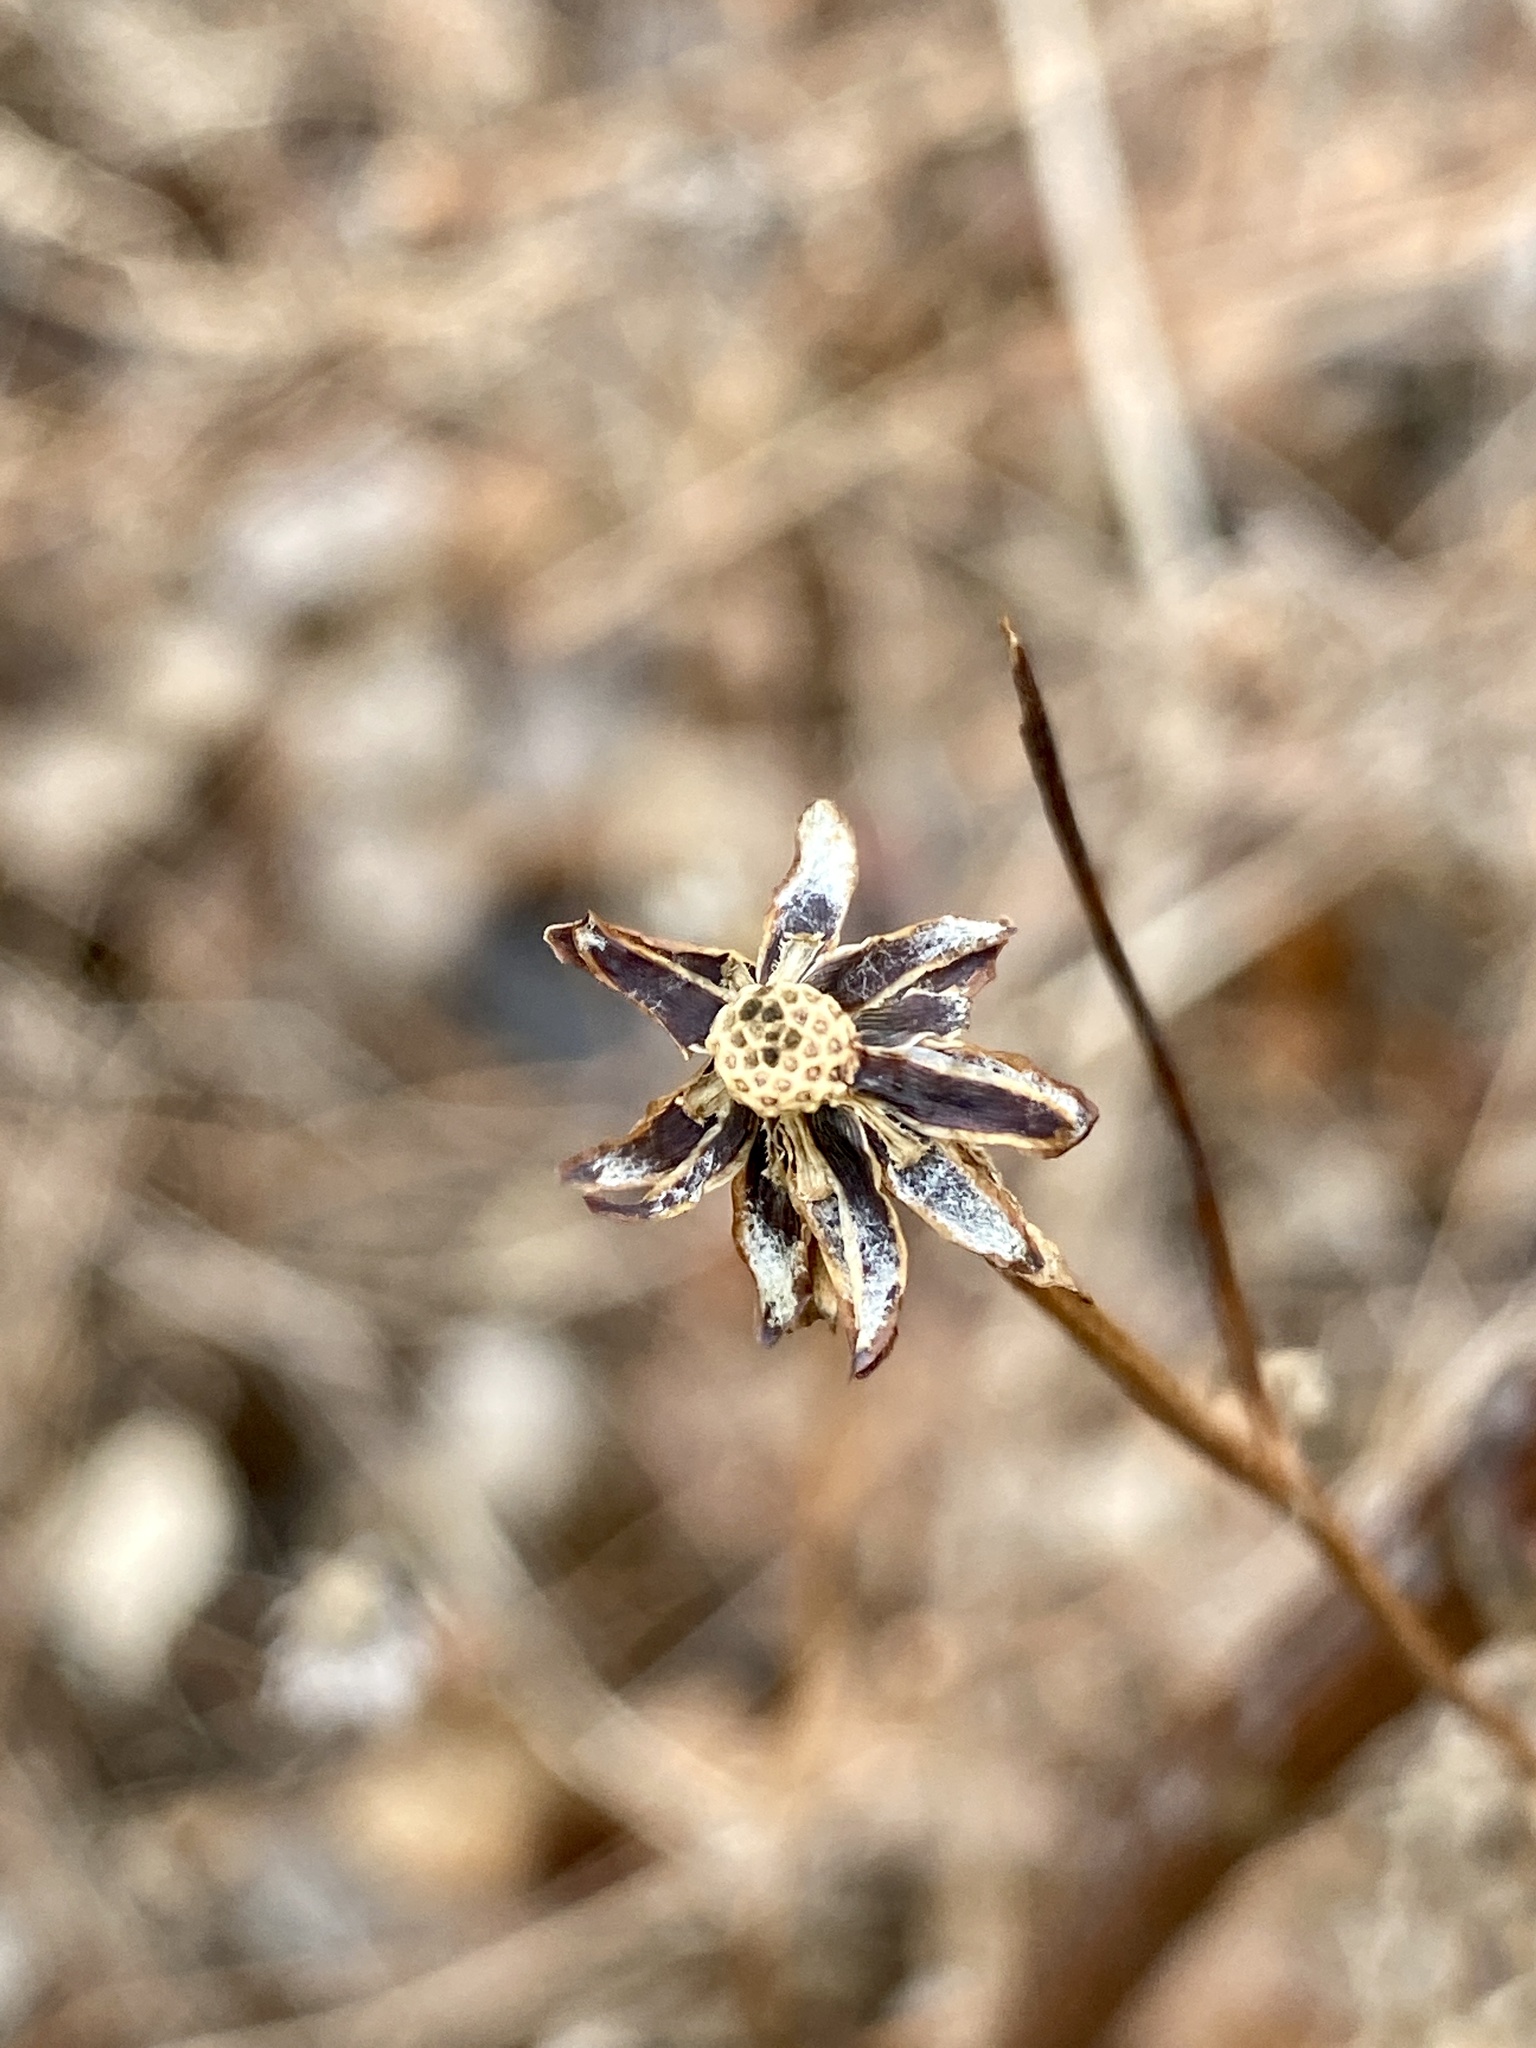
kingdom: Plantae
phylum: Tracheophyta
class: Magnoliopsida
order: Asterales
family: Asteraceae
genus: Bidens
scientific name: Bidens polylepis
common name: Awnless beggarticks
